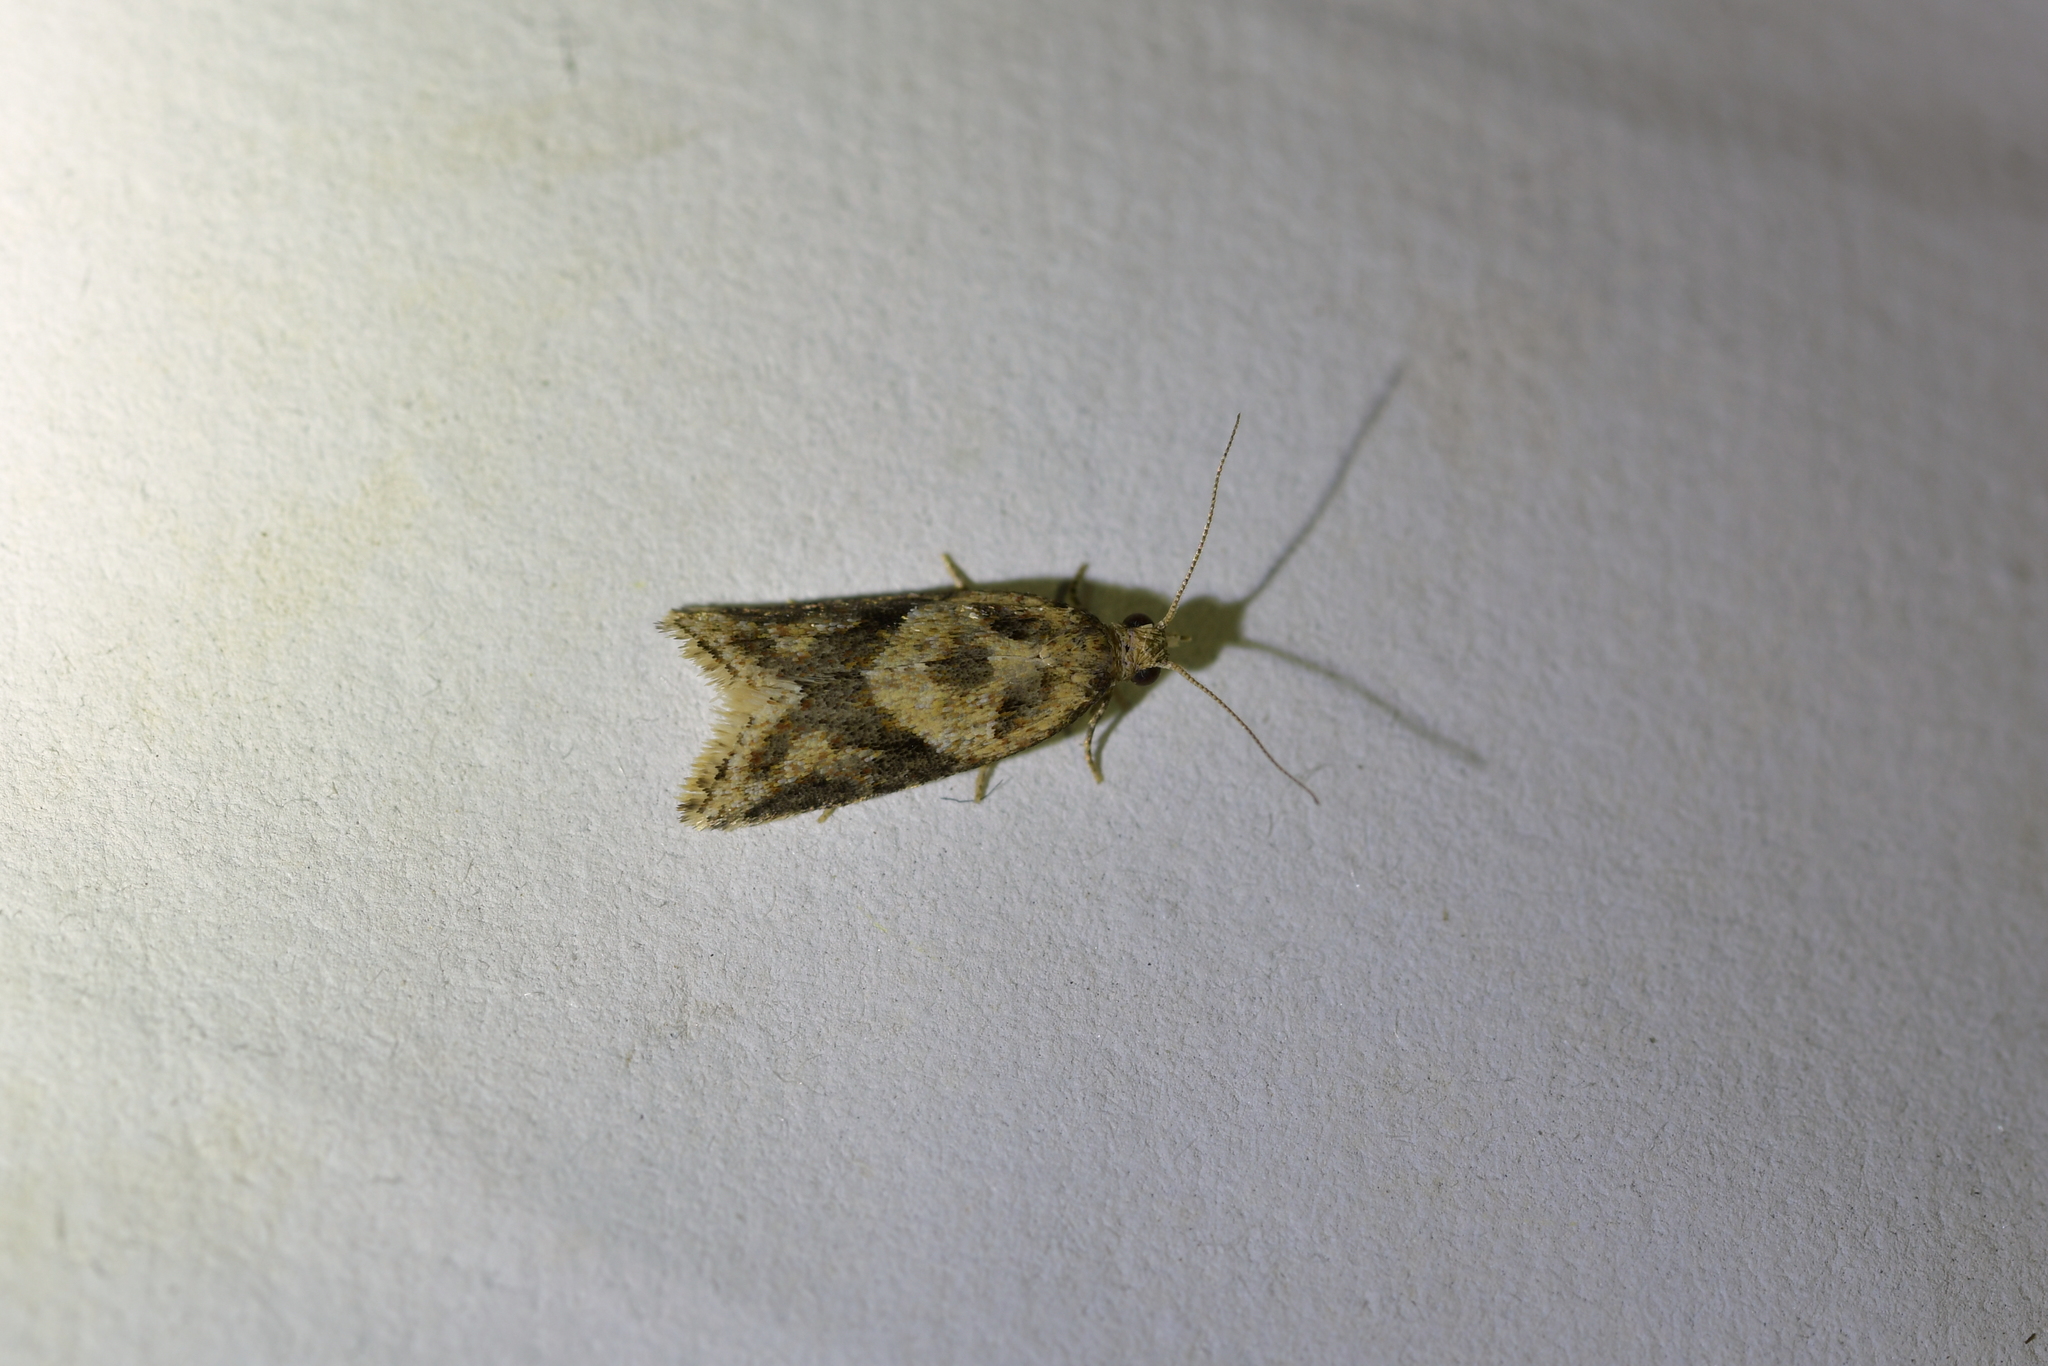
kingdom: Animalia
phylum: Arthropoda
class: Insecta
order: Lepidoptera
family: Tortricidae
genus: Capua
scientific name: Capua semiferana
